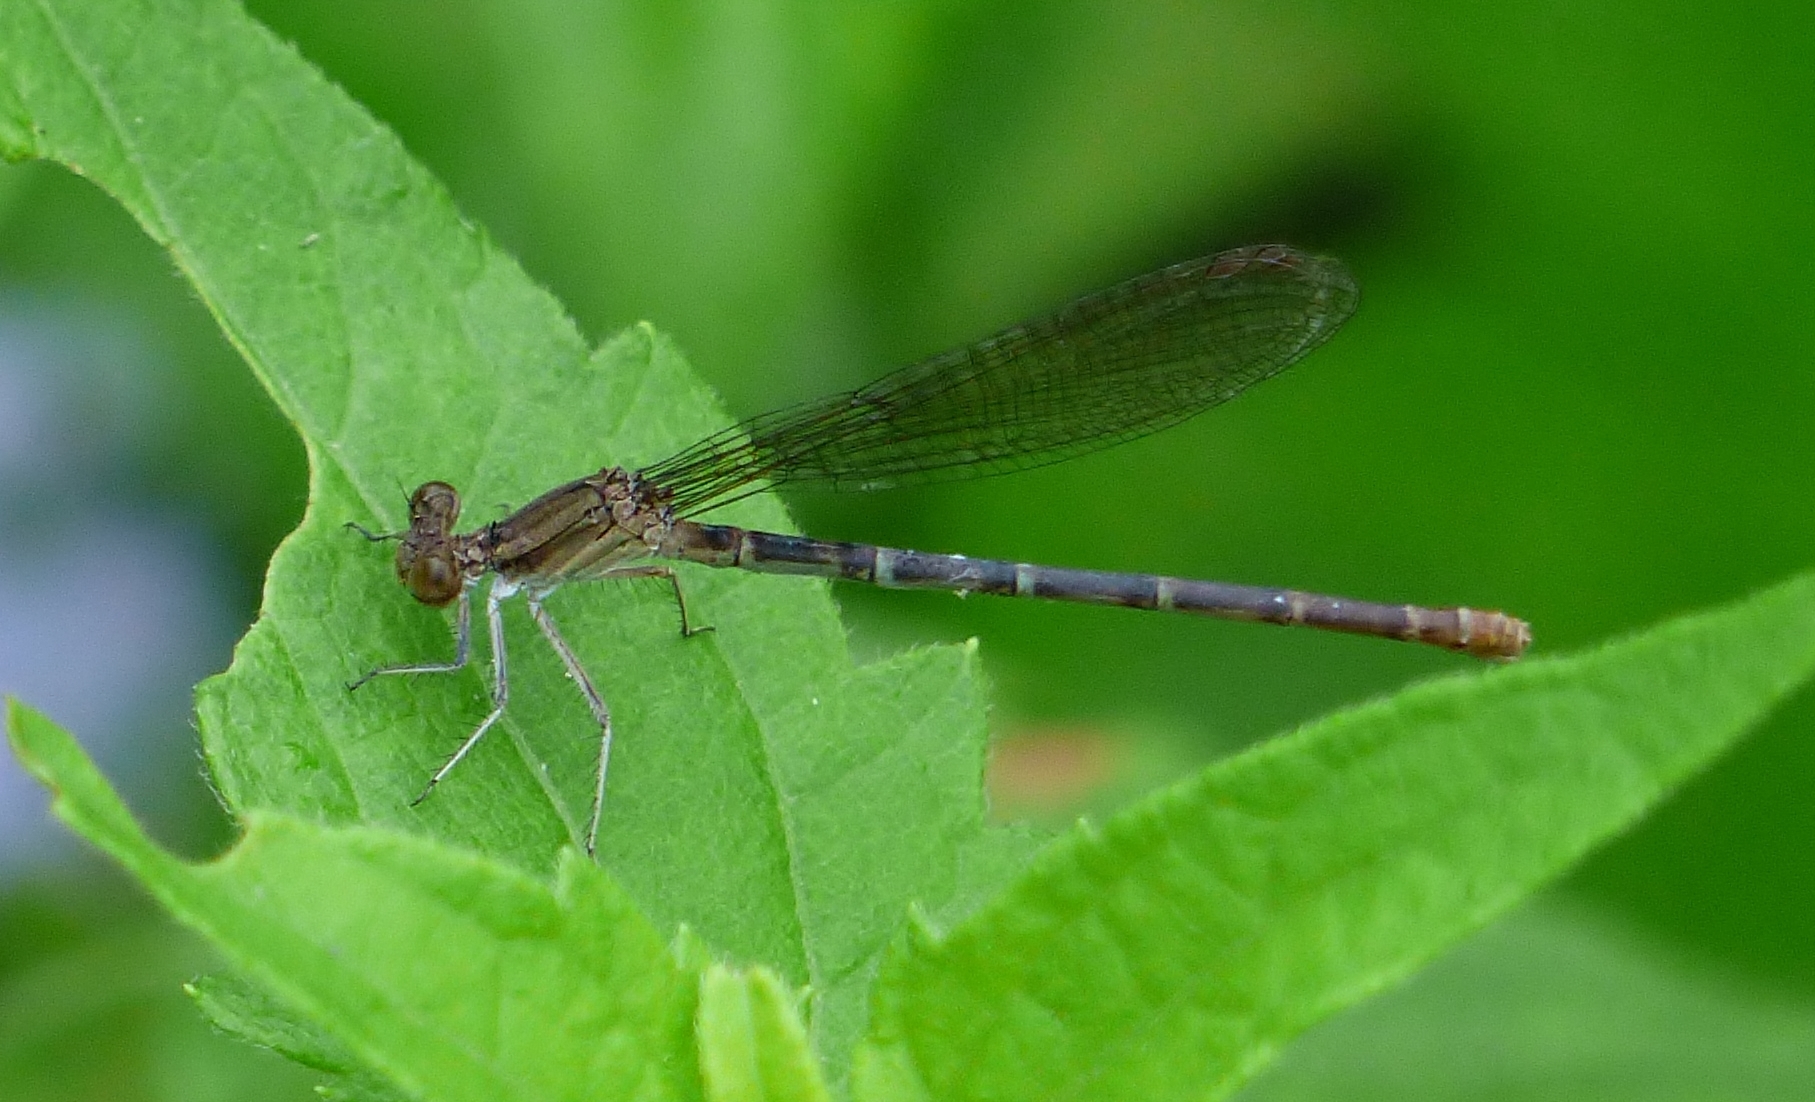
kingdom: Animalia
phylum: Arthropoda
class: Insecta
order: Odonata
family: Coenagrionidae
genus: Argia
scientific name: Argia sedula
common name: Blue-ringed dancer
